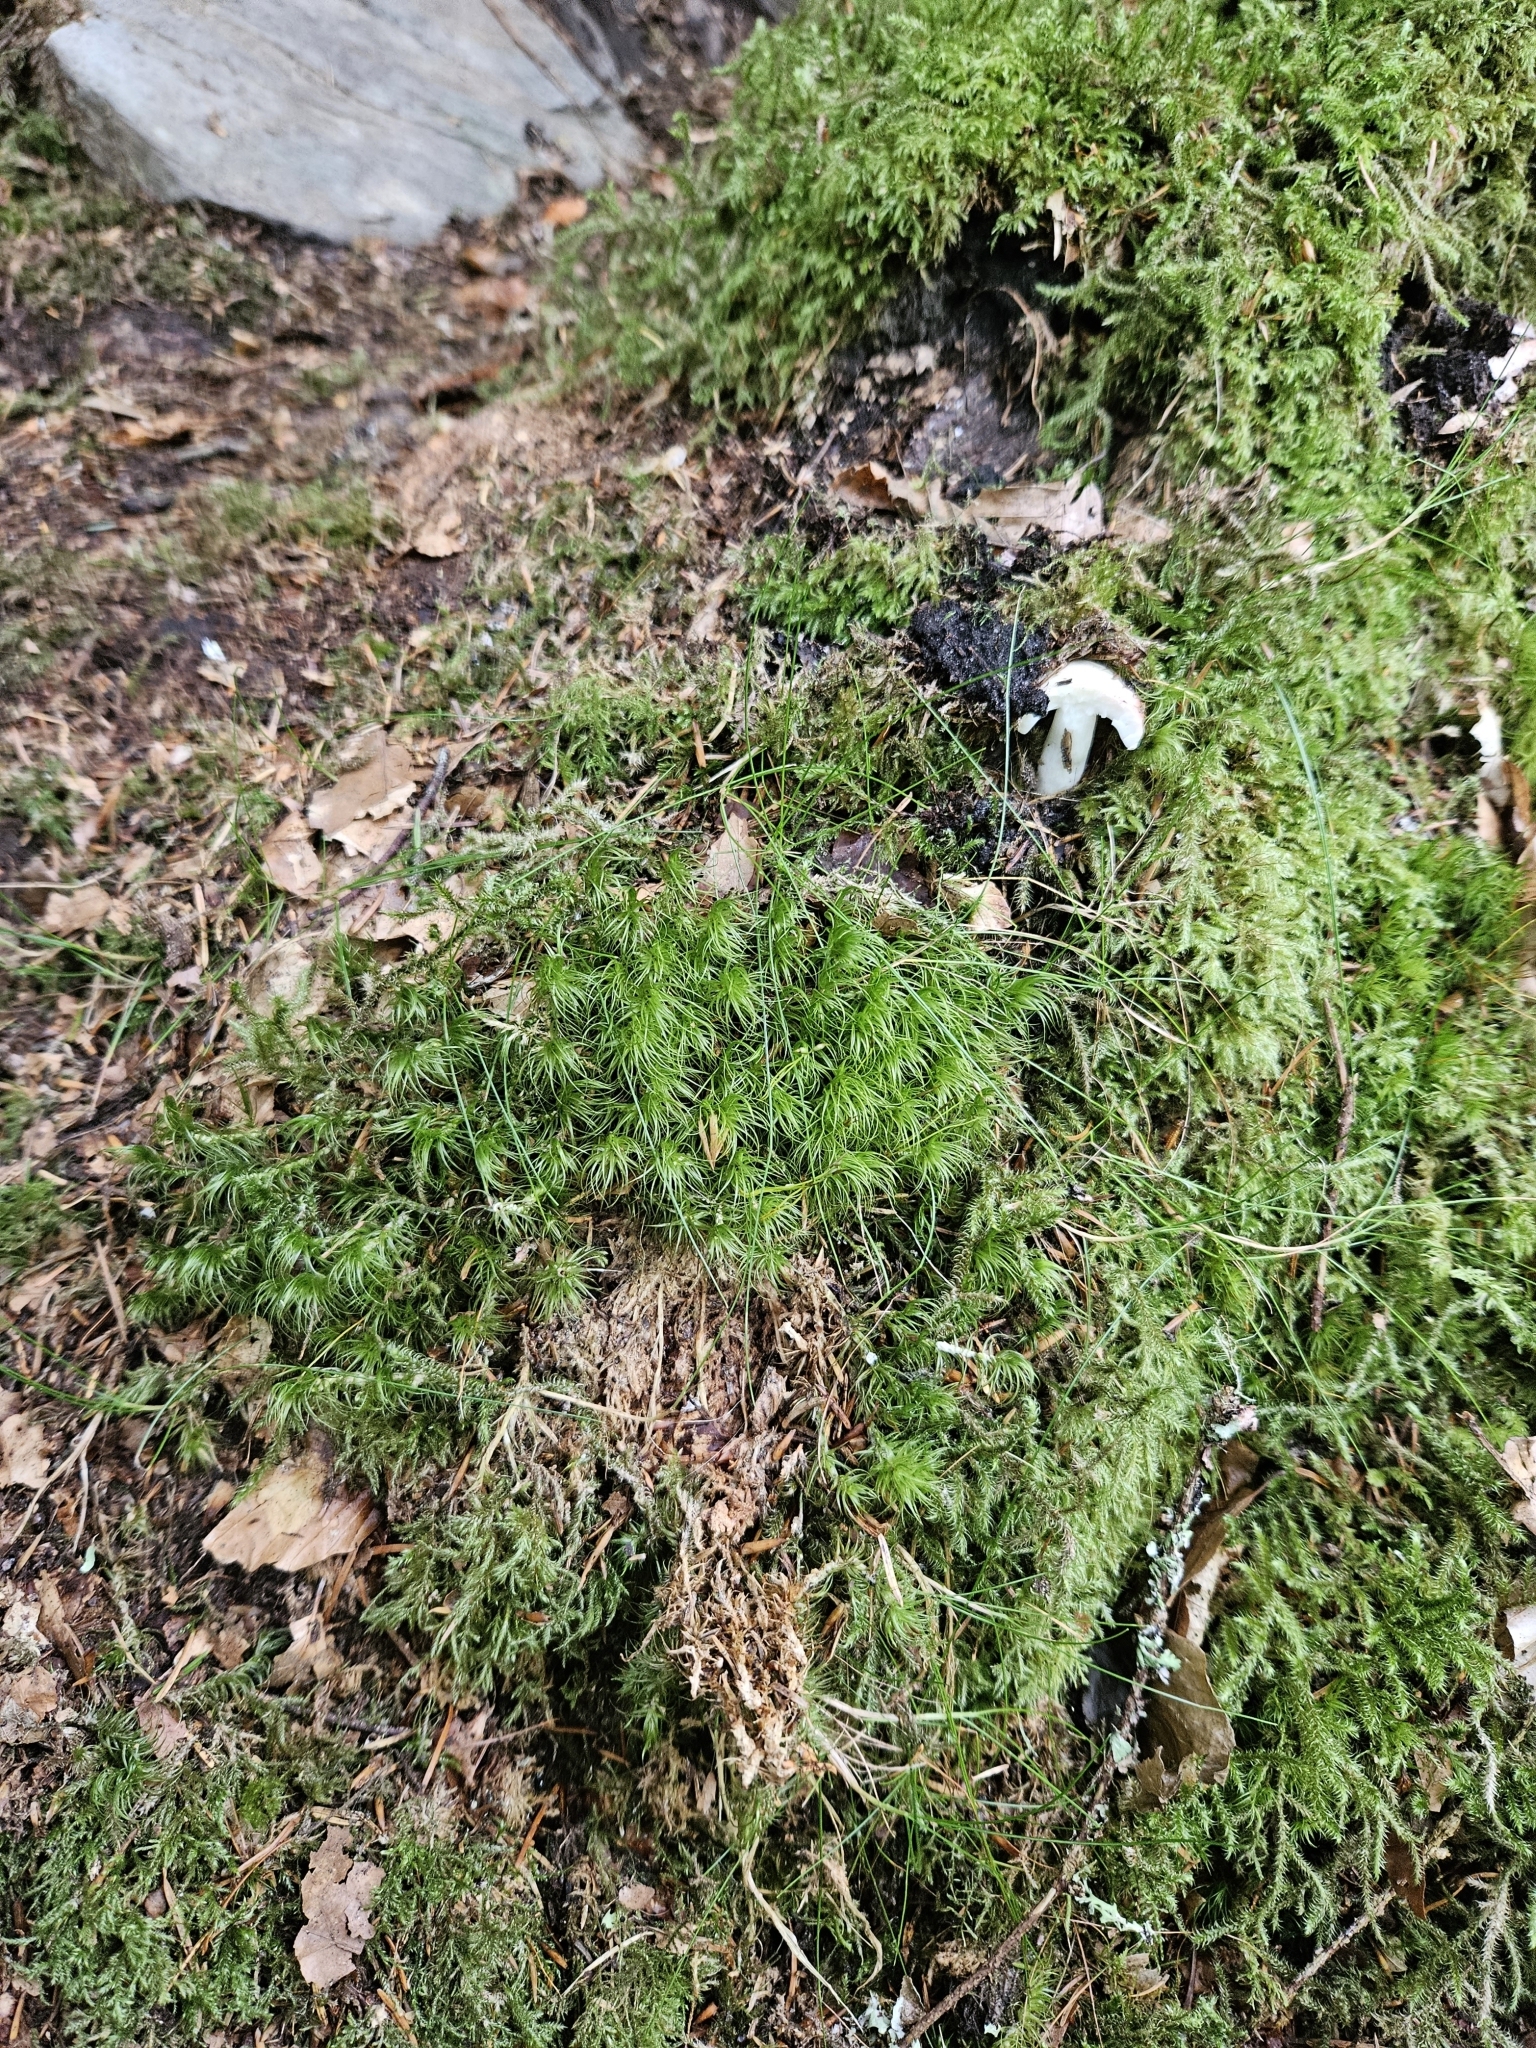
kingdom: Plantae
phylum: Bryophyta
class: Bryopsida
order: Dicranales
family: Dicranaceae
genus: Dicranum
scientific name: Dicranum majus
